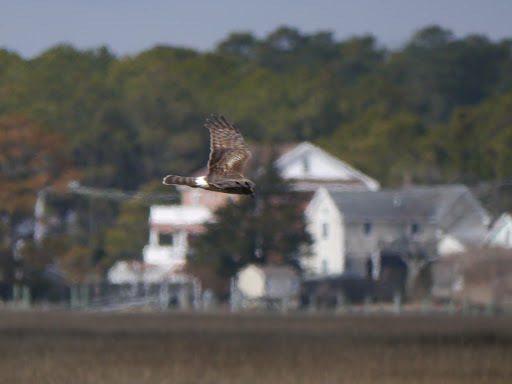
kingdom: Animalia
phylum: Chordata
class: Aves
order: Accipitriformes
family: Accipitridae
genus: Circus
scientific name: Circus cyaneus
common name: Hen harrier
